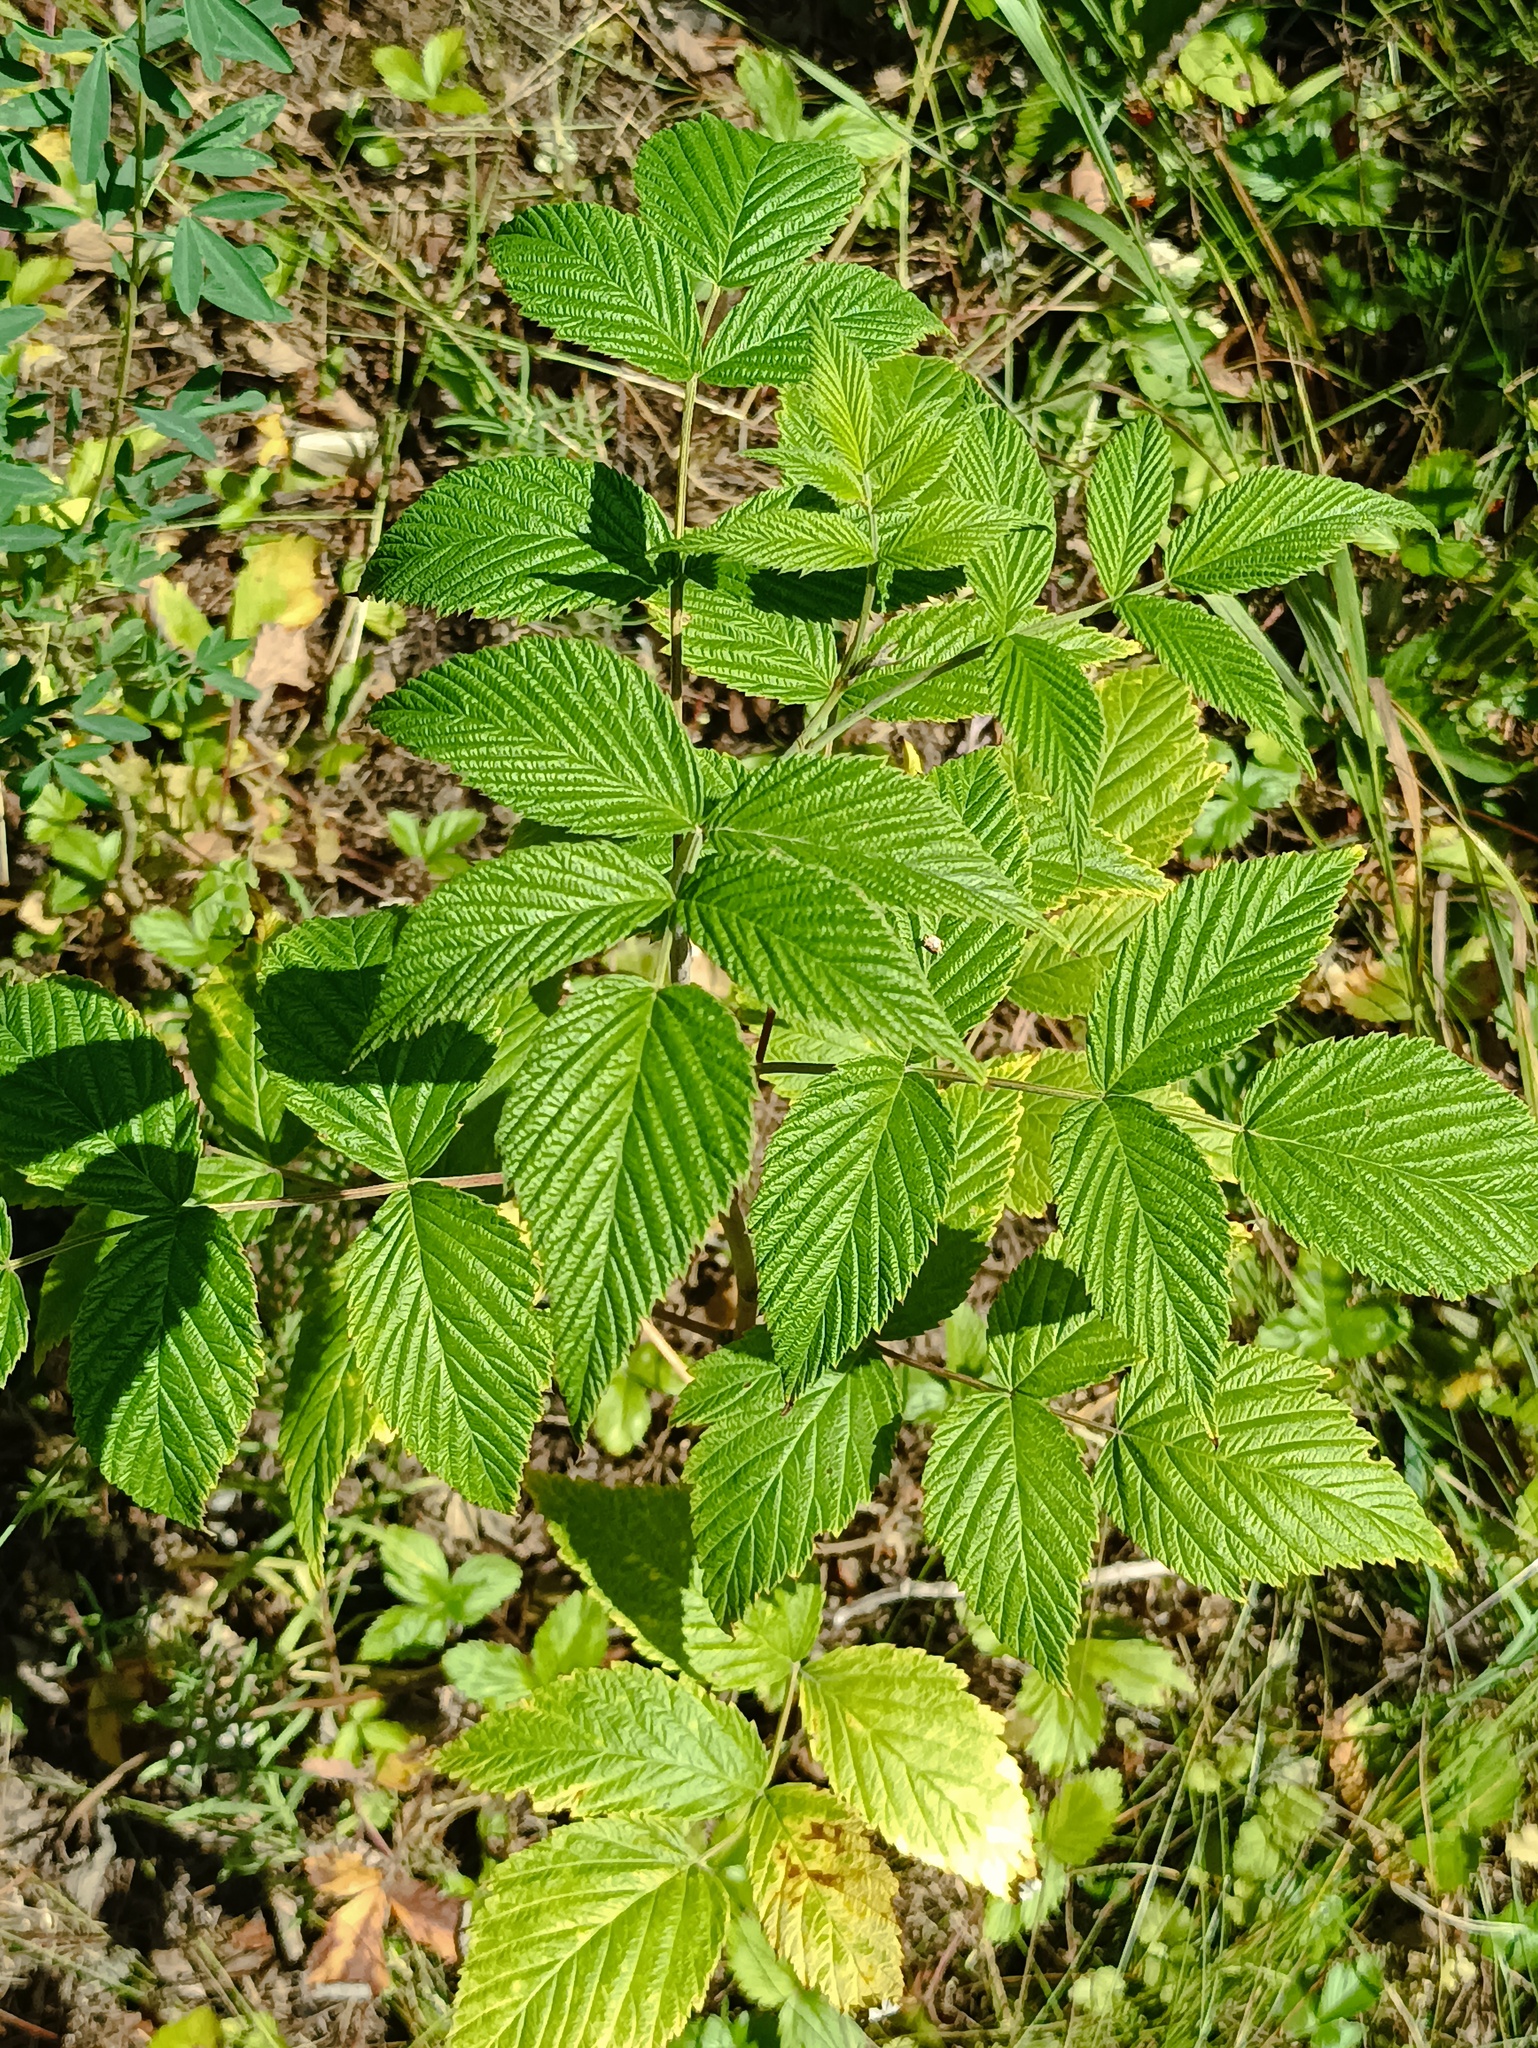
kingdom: Plantae
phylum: Tracheophyta
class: Magnoliopsida
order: Rosales
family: Rosaceae
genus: Rubus
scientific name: Rubus idaeus
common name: Raspberry
